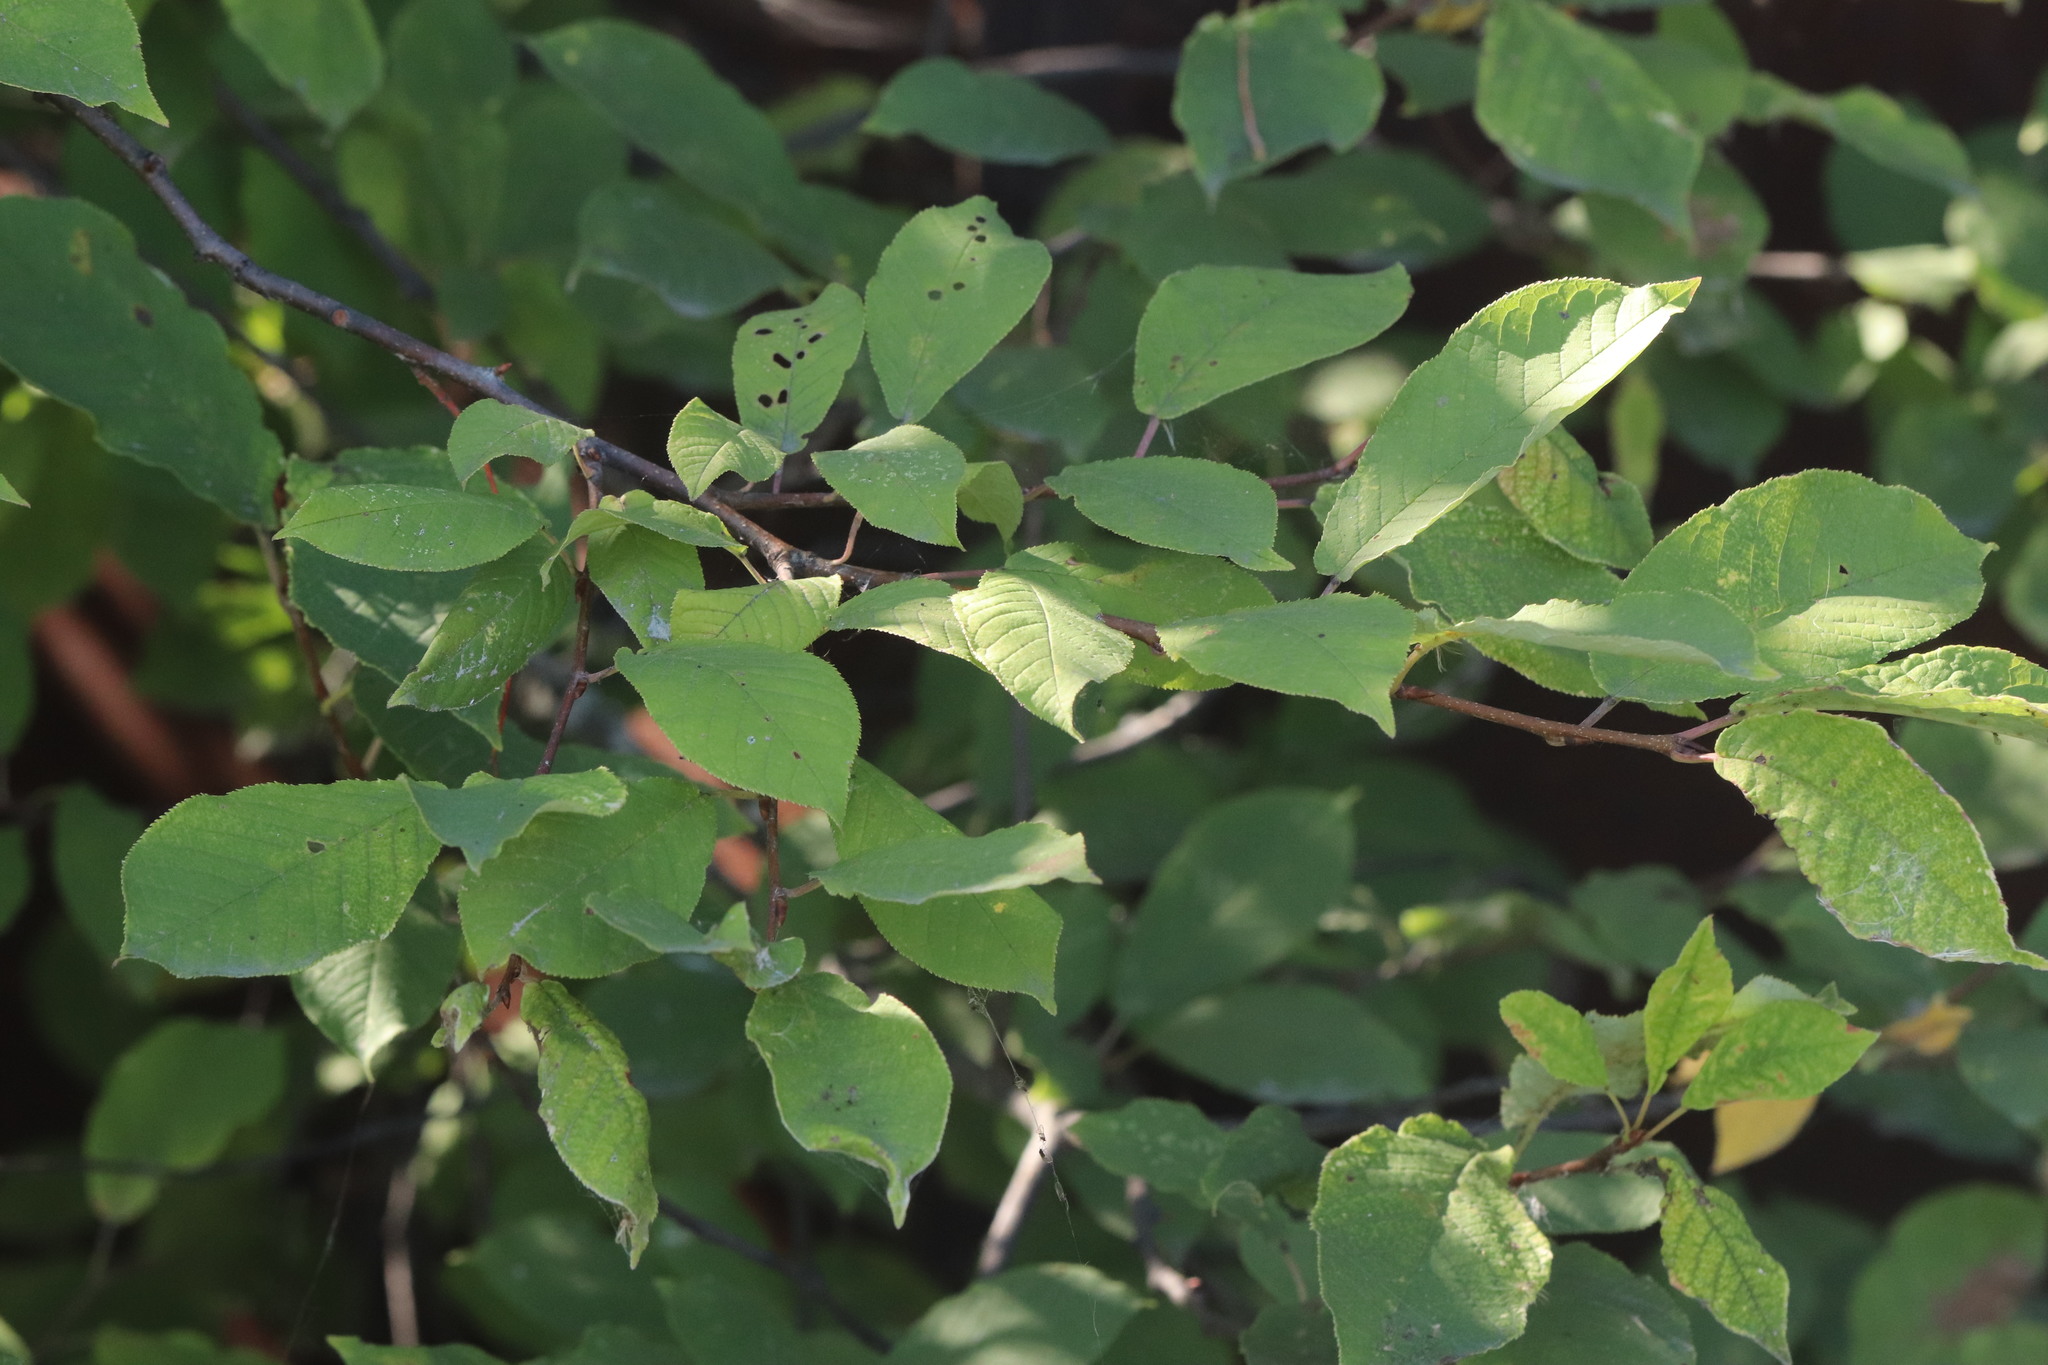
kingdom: Plantae
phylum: Tracheophyta
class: Magnoliopsida
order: Rosales
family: Rosaceae
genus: Prunus
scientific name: Prunus padus
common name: Bird cherry
